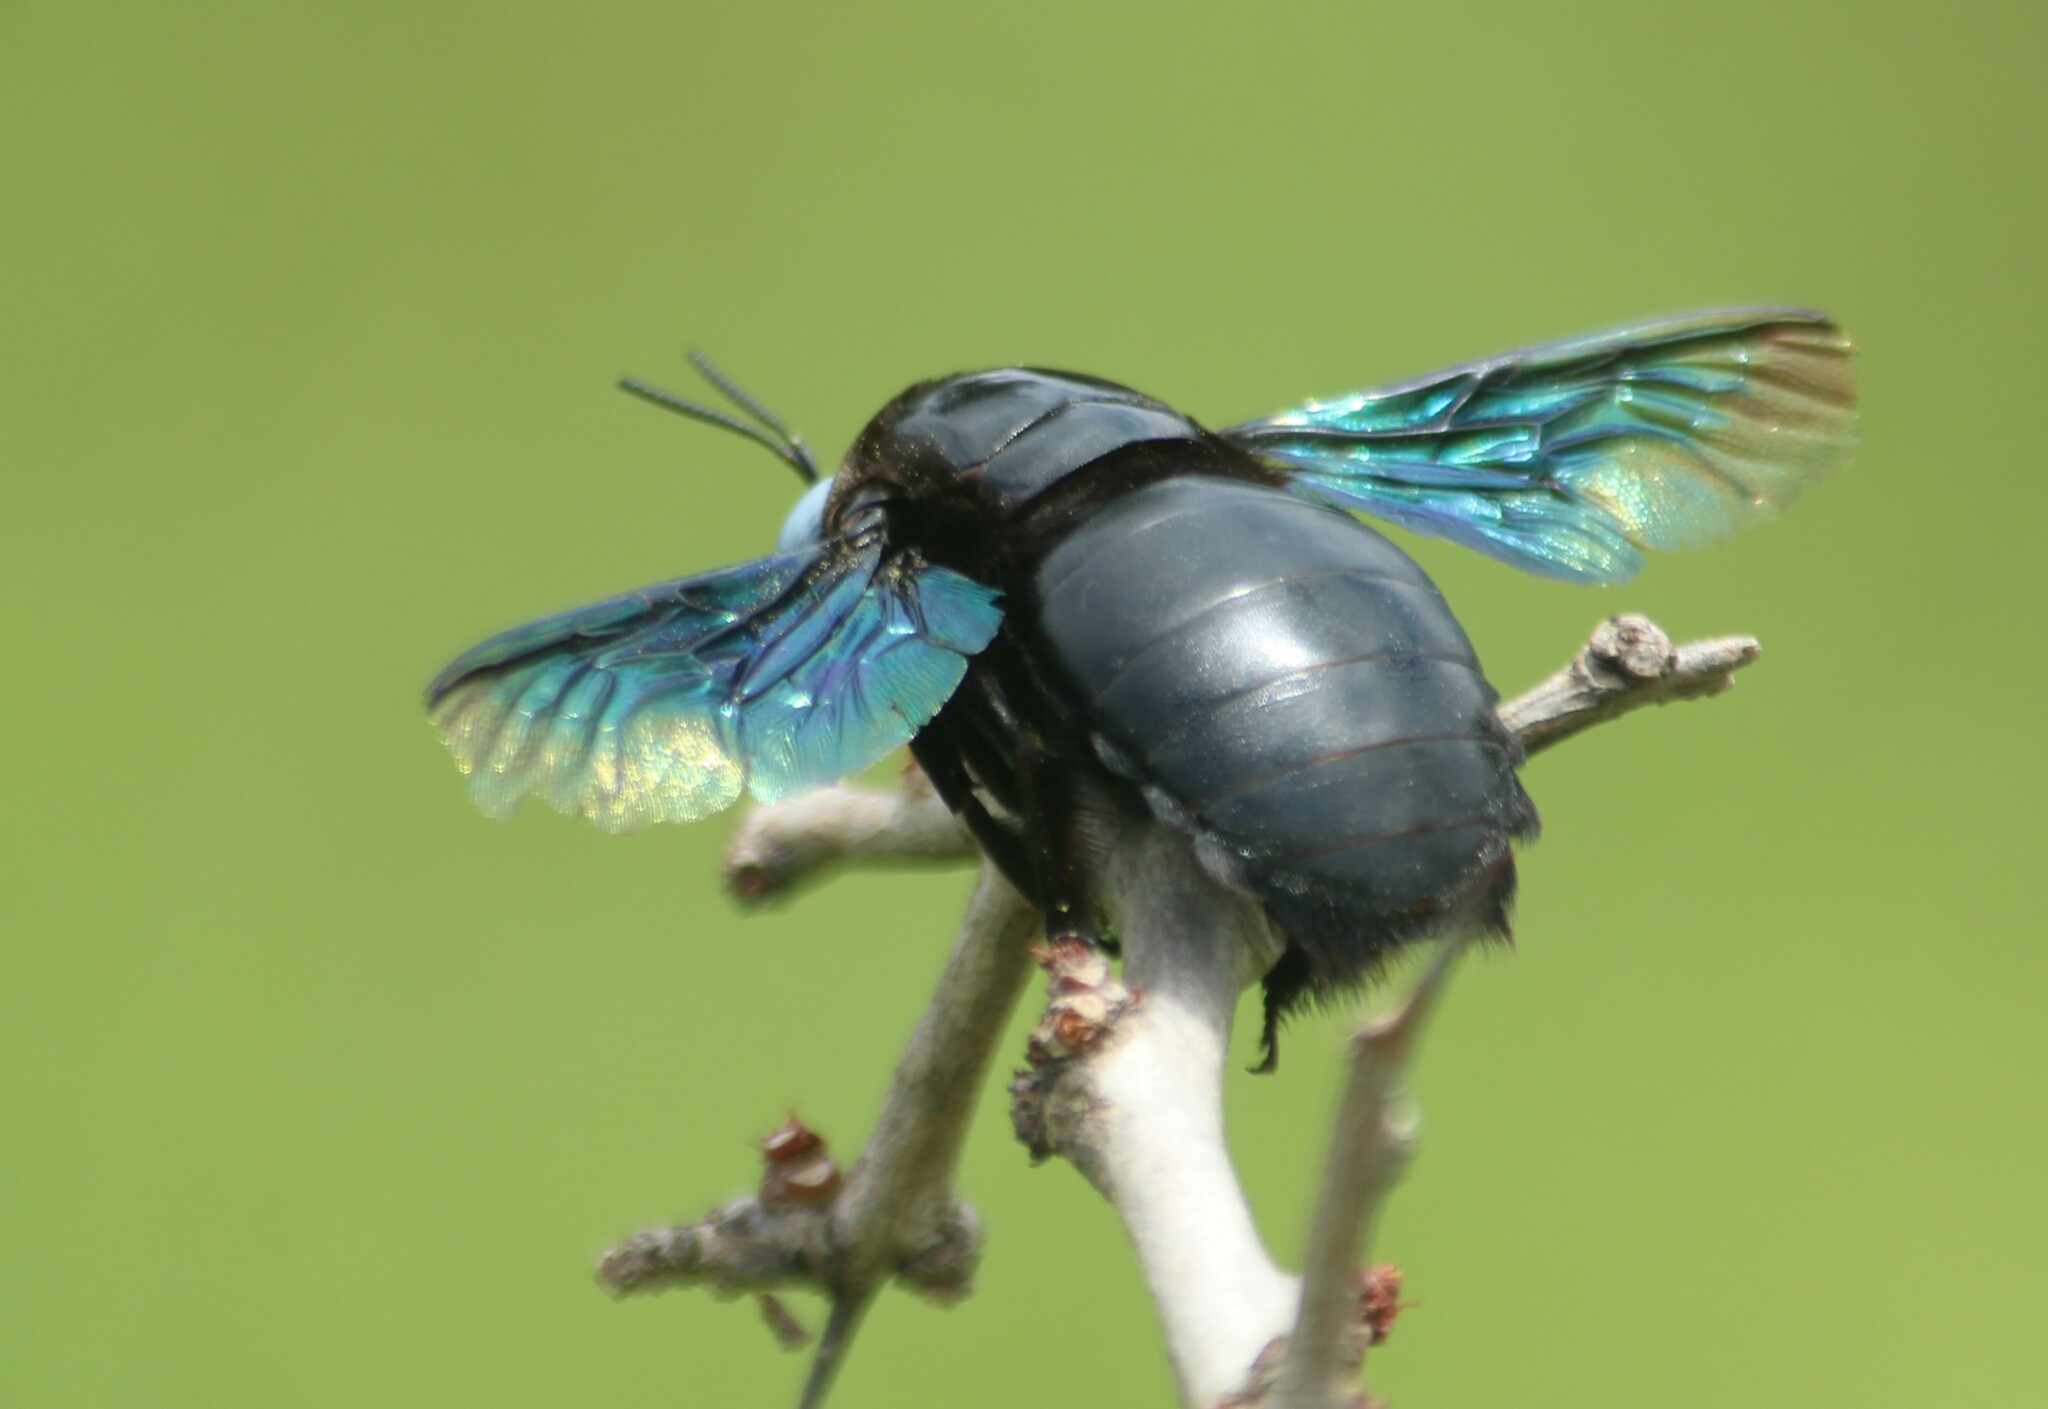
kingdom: Animalia
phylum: Arthropoda
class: Insecta
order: Hymenoptera
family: Apidae
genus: Xylocopa
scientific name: Xylocopa tenuiscapa
